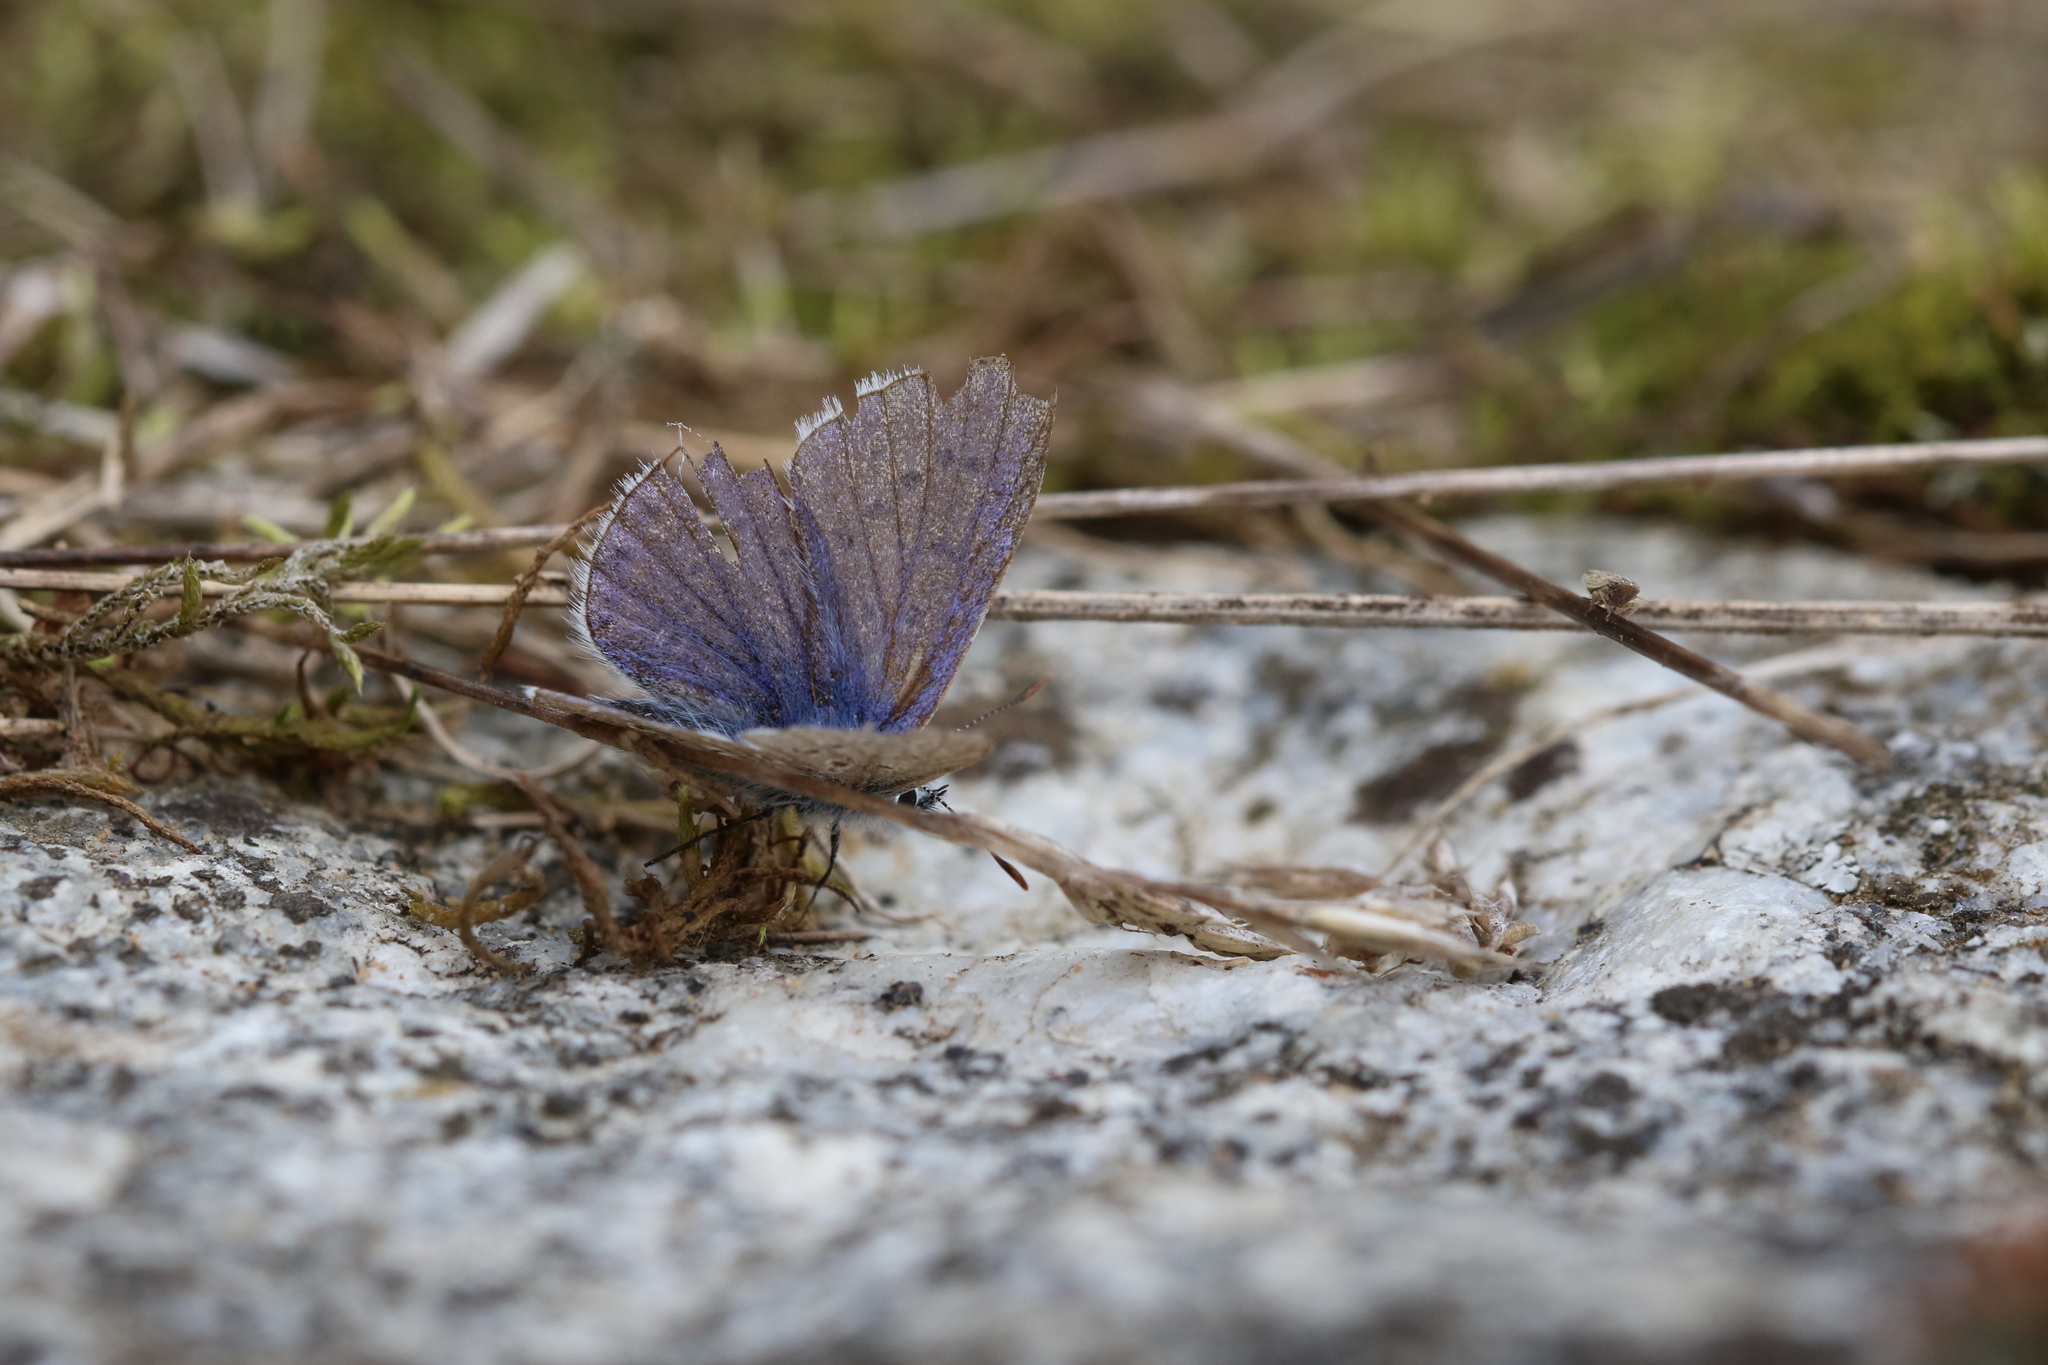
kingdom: Animalia
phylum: Arthropoda
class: Insecta
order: Lepidoptera
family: Lycaenidae
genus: Polyommatus
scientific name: Polyommatus icarus
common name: Common blue
